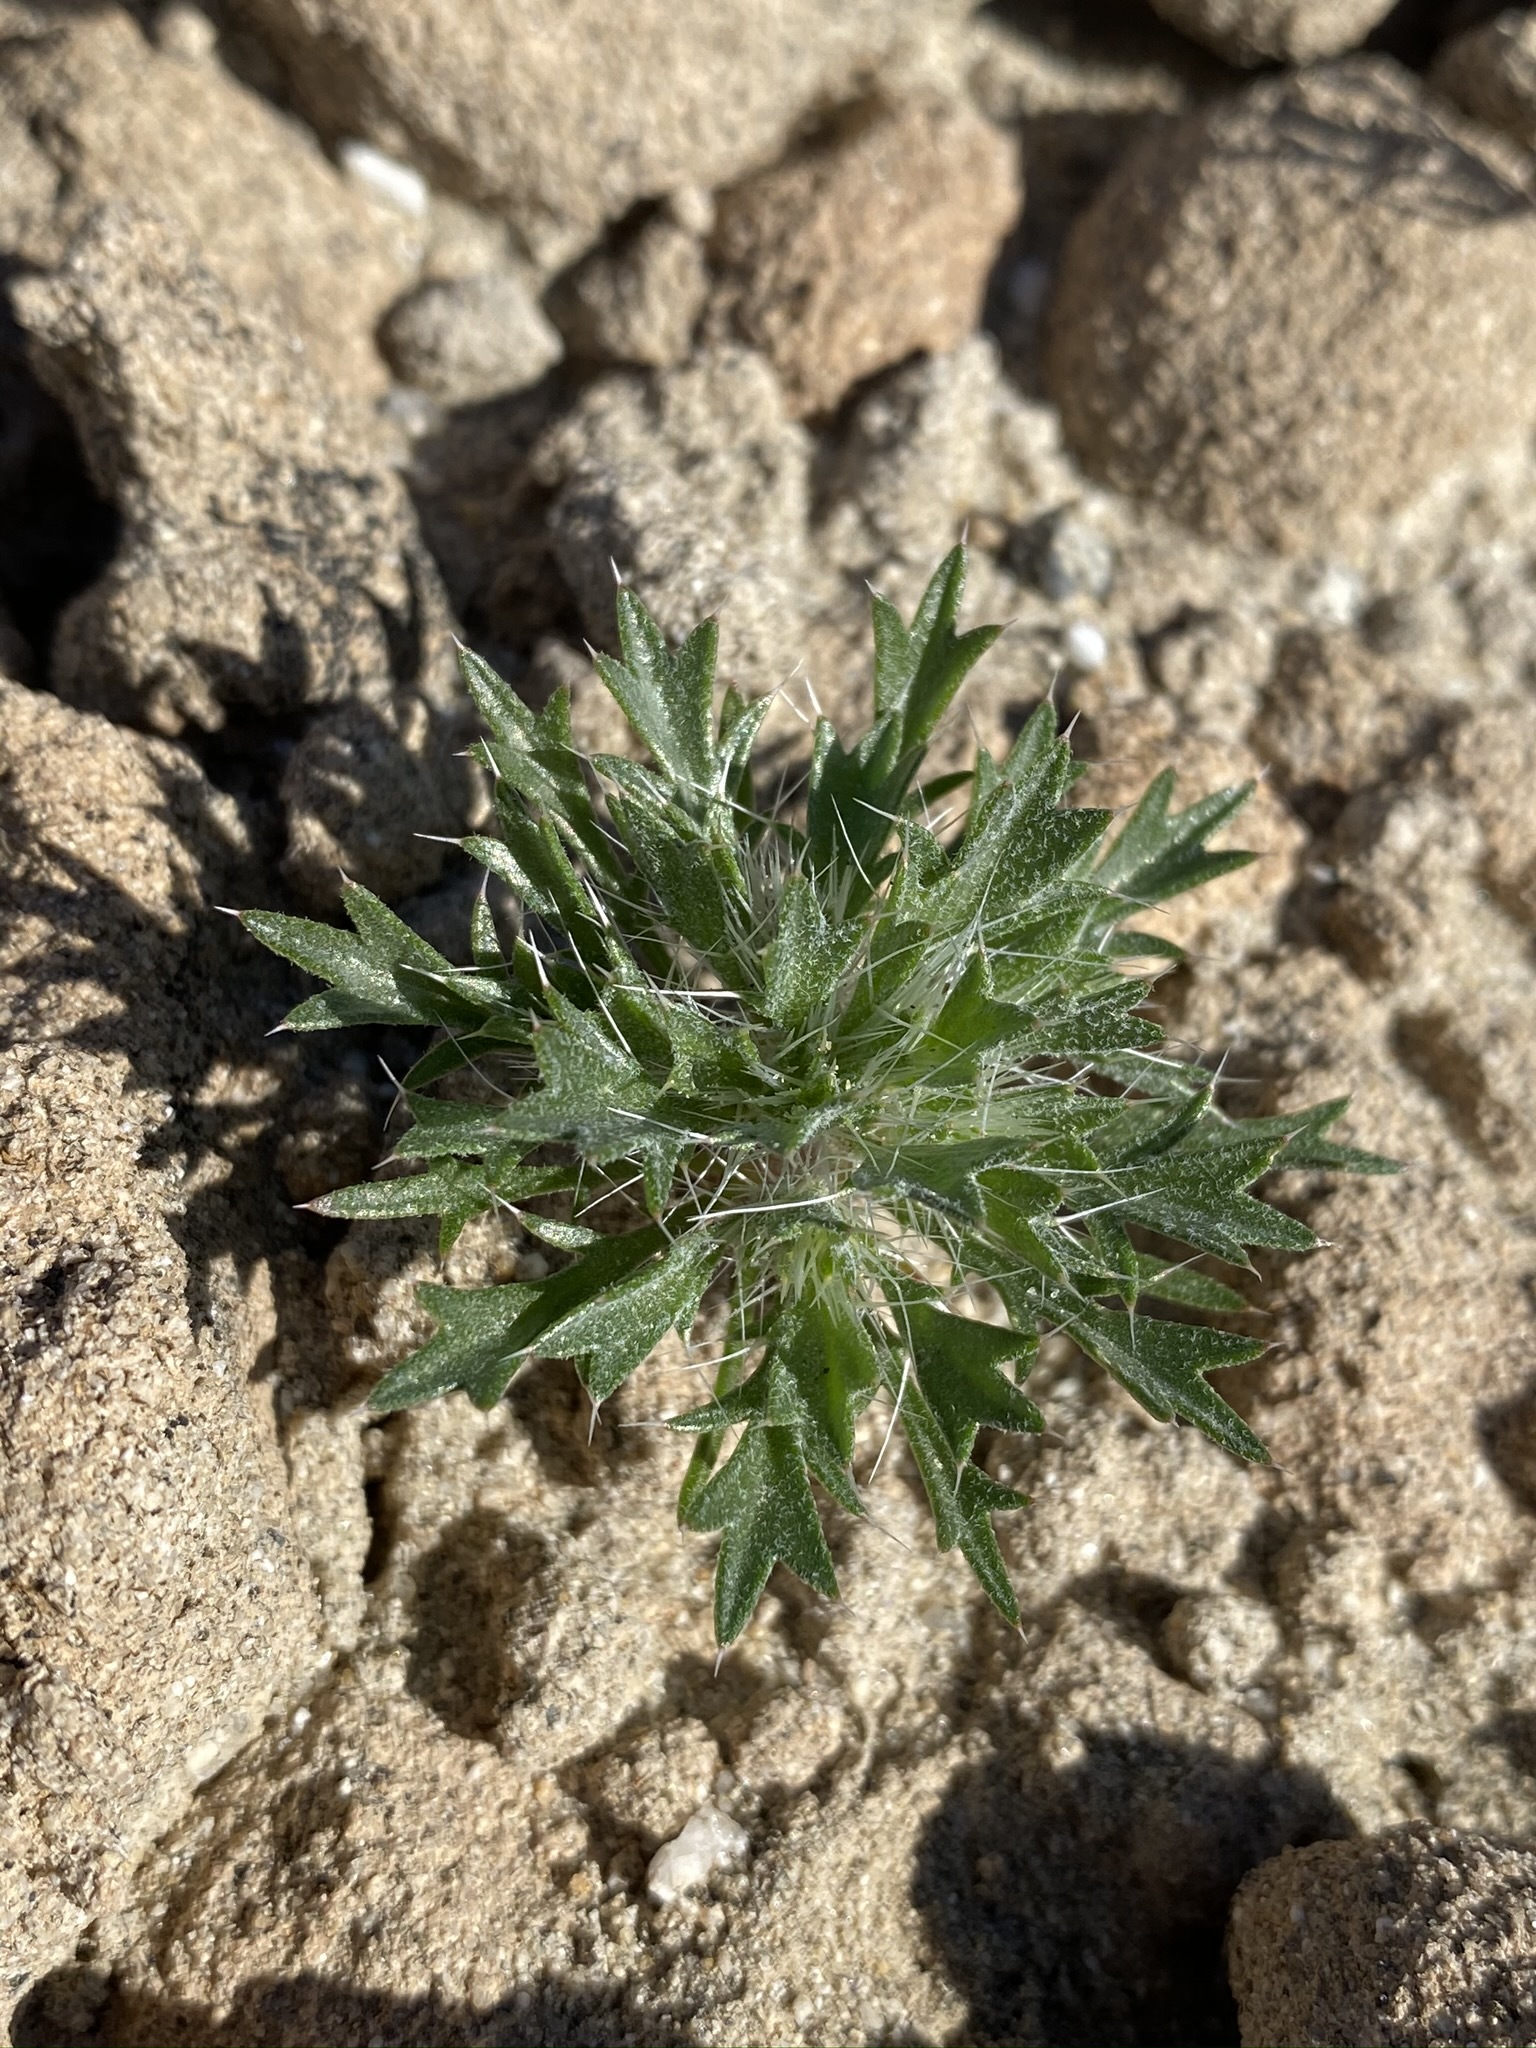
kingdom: Plantae
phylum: Tracheophyta
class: Magnoliopsida
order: Ericales
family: Polemoniaceae
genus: Langloisia
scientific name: Langloisia setosissima
